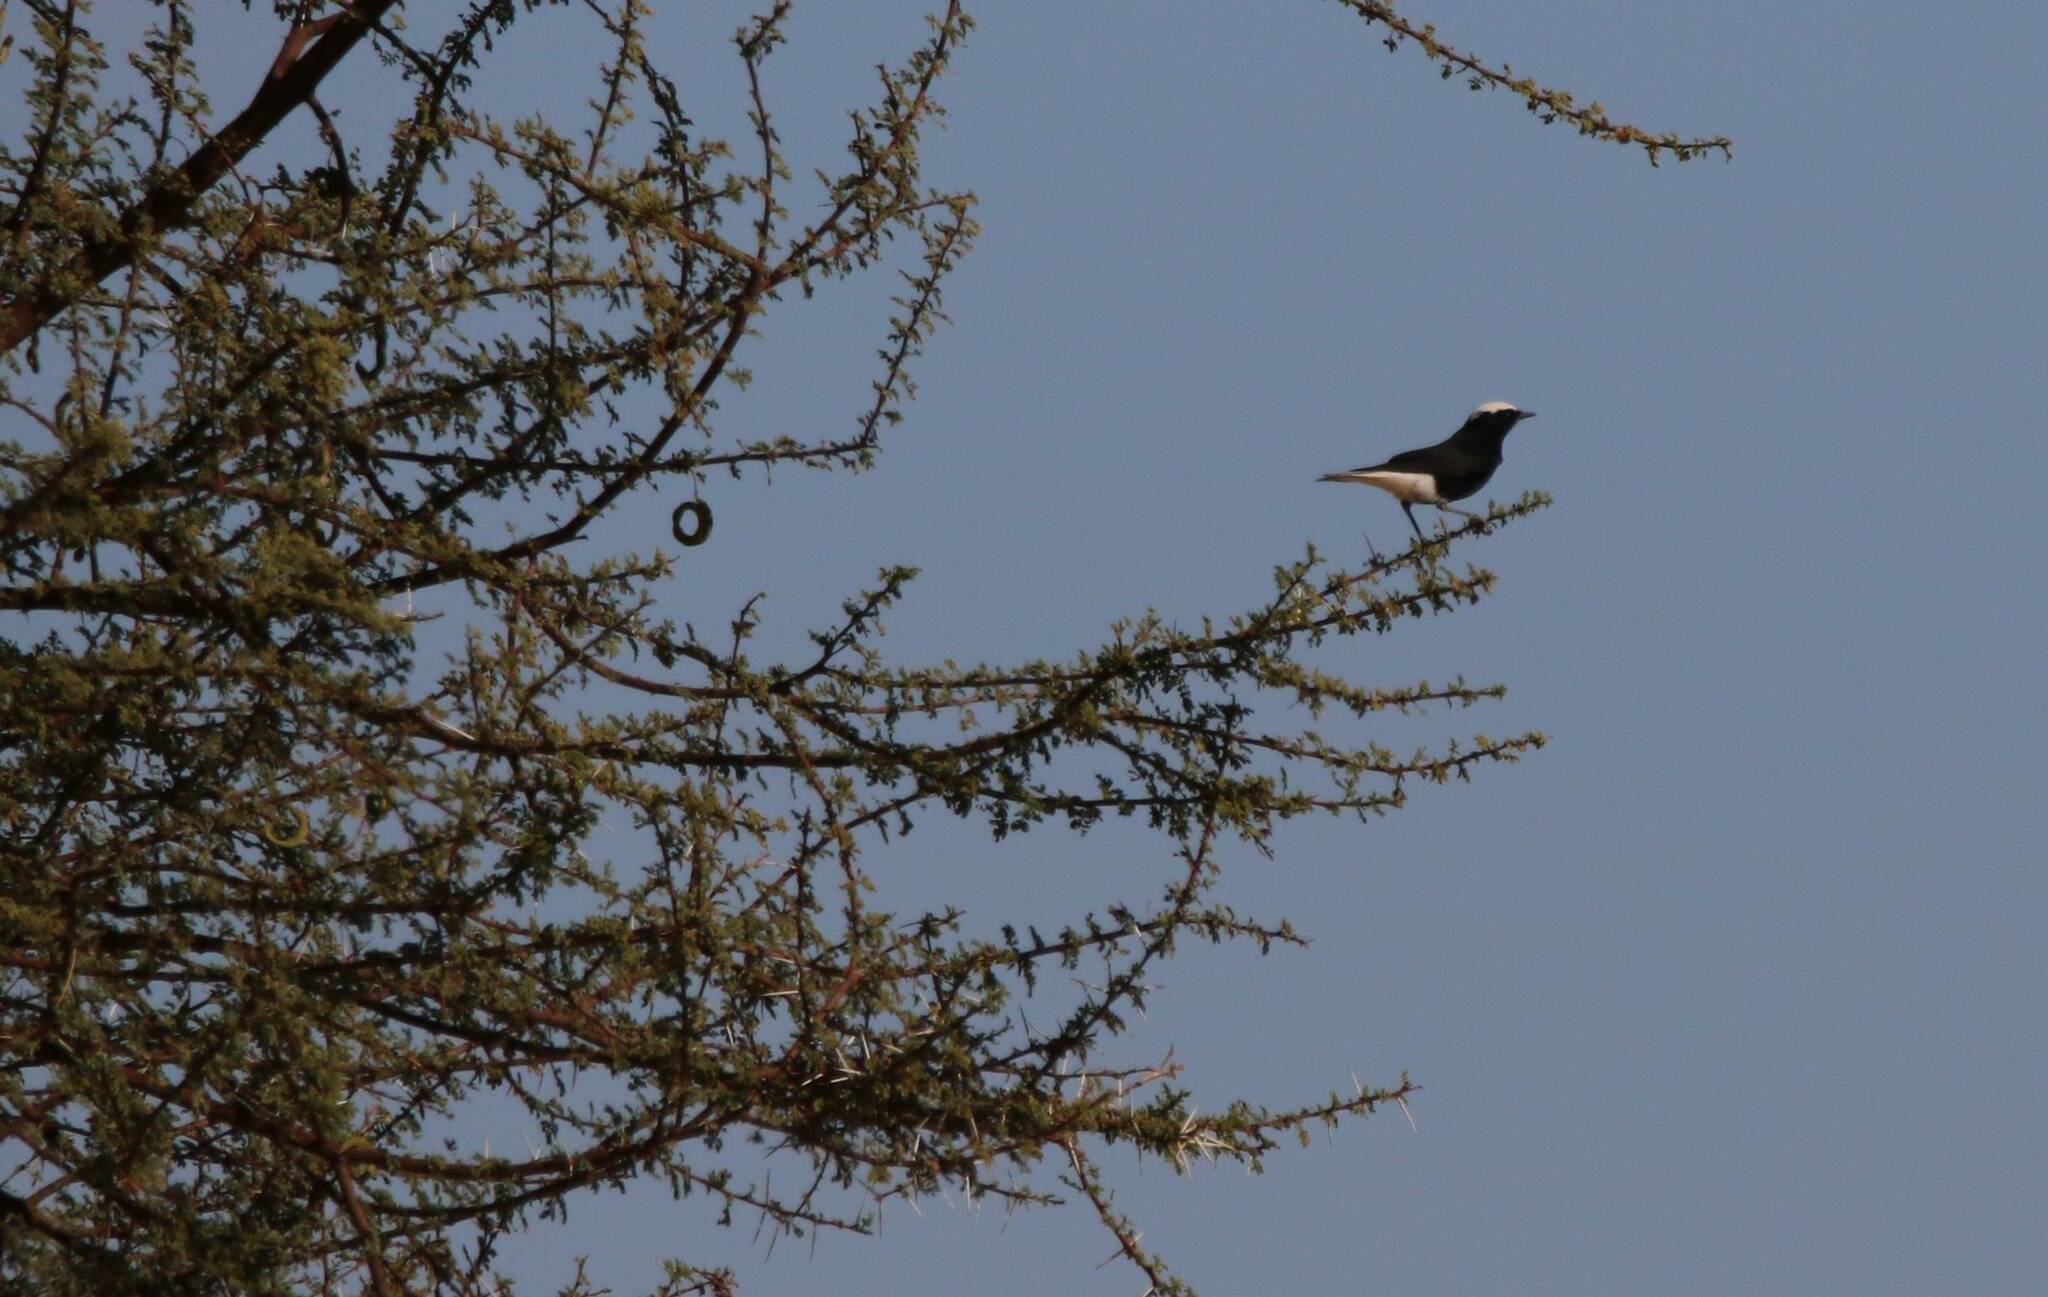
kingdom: Animalia
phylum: Chordata
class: Aves
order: Passeriformes
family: Muscicapidae
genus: Oenanthe
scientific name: Oenanthe leucopyga
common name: White-crowned wheatear
